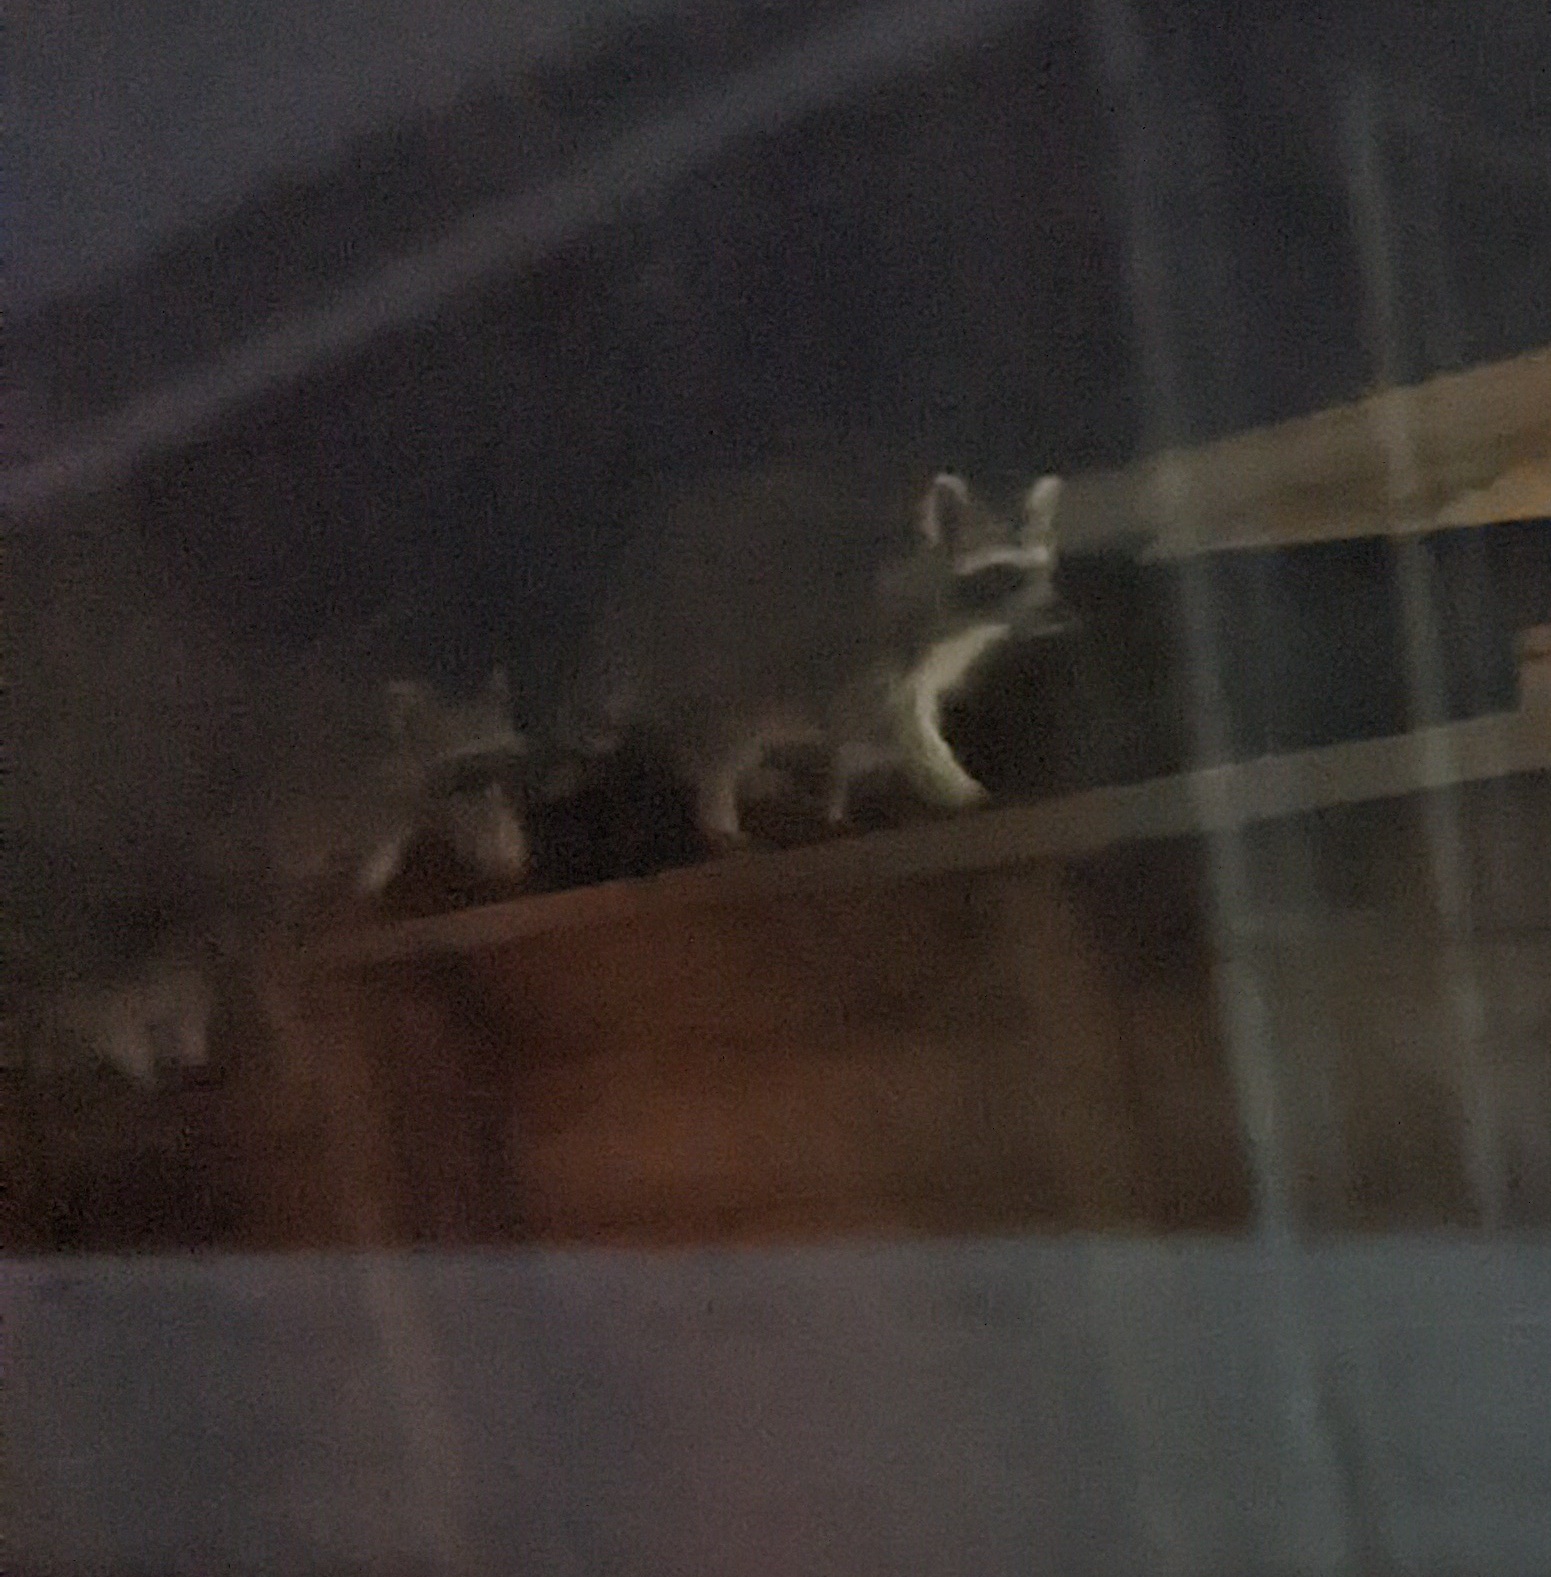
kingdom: Animalia
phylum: Chordata
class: Mammalia
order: Carnivora
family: Procyonidae
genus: Procyon
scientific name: Procyon lotor
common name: Raccoon
